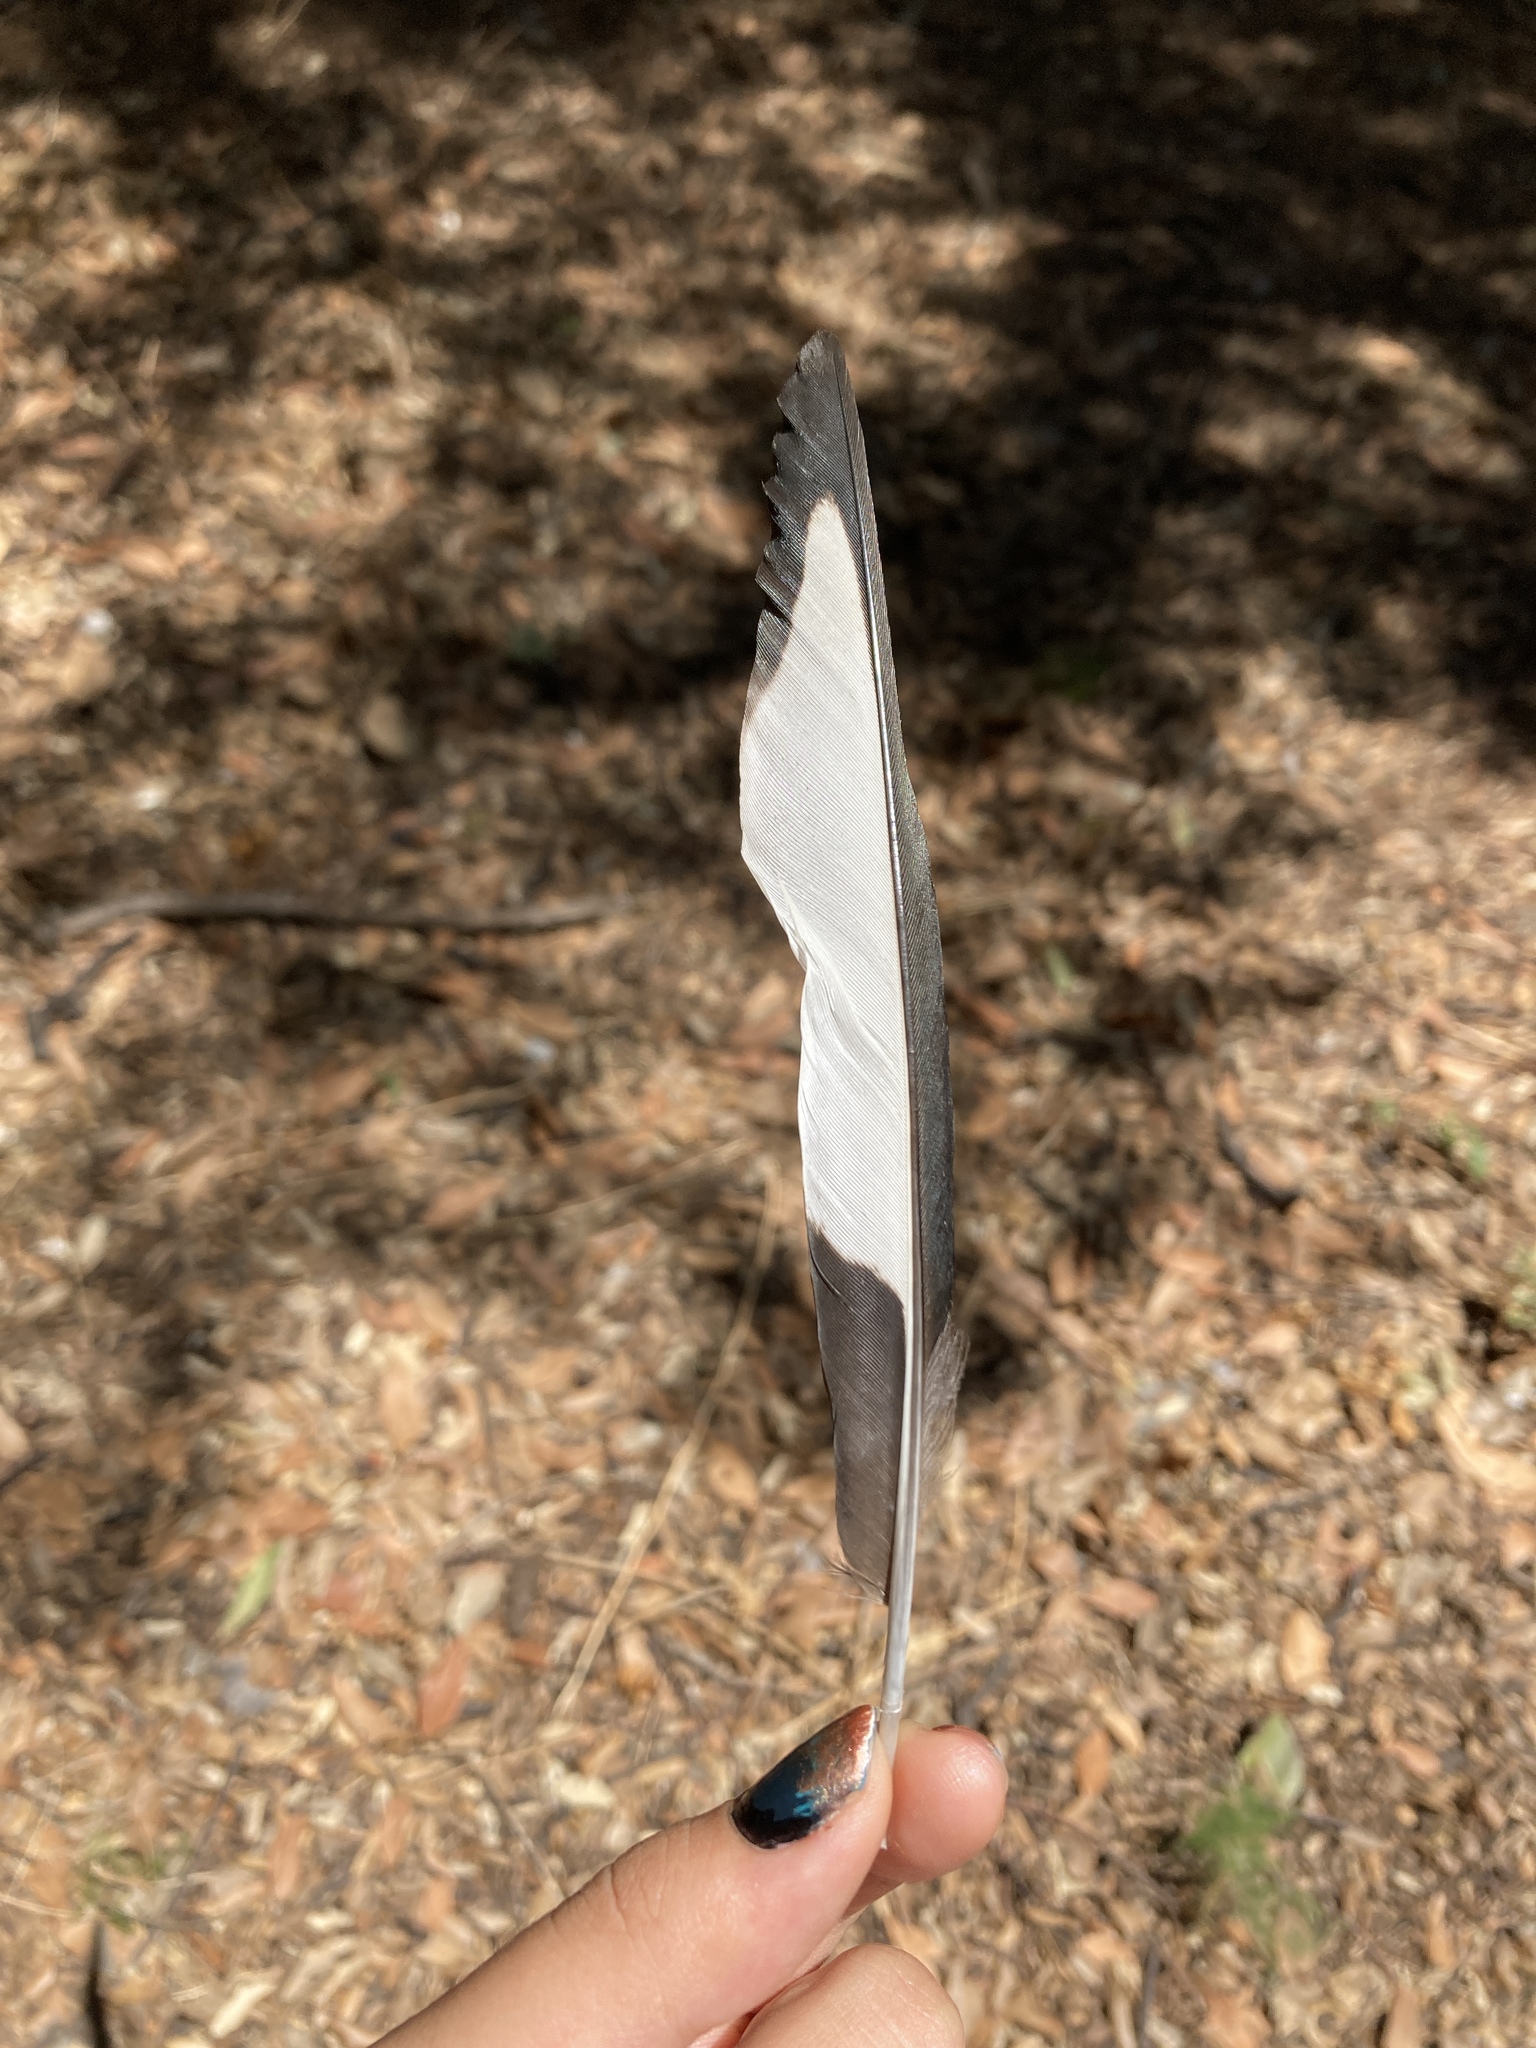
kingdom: Animalia
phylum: Chordata
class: Aves
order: Passeriformes
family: Corvidae
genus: Pica
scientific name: Pica pica
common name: Eurasian magpie
